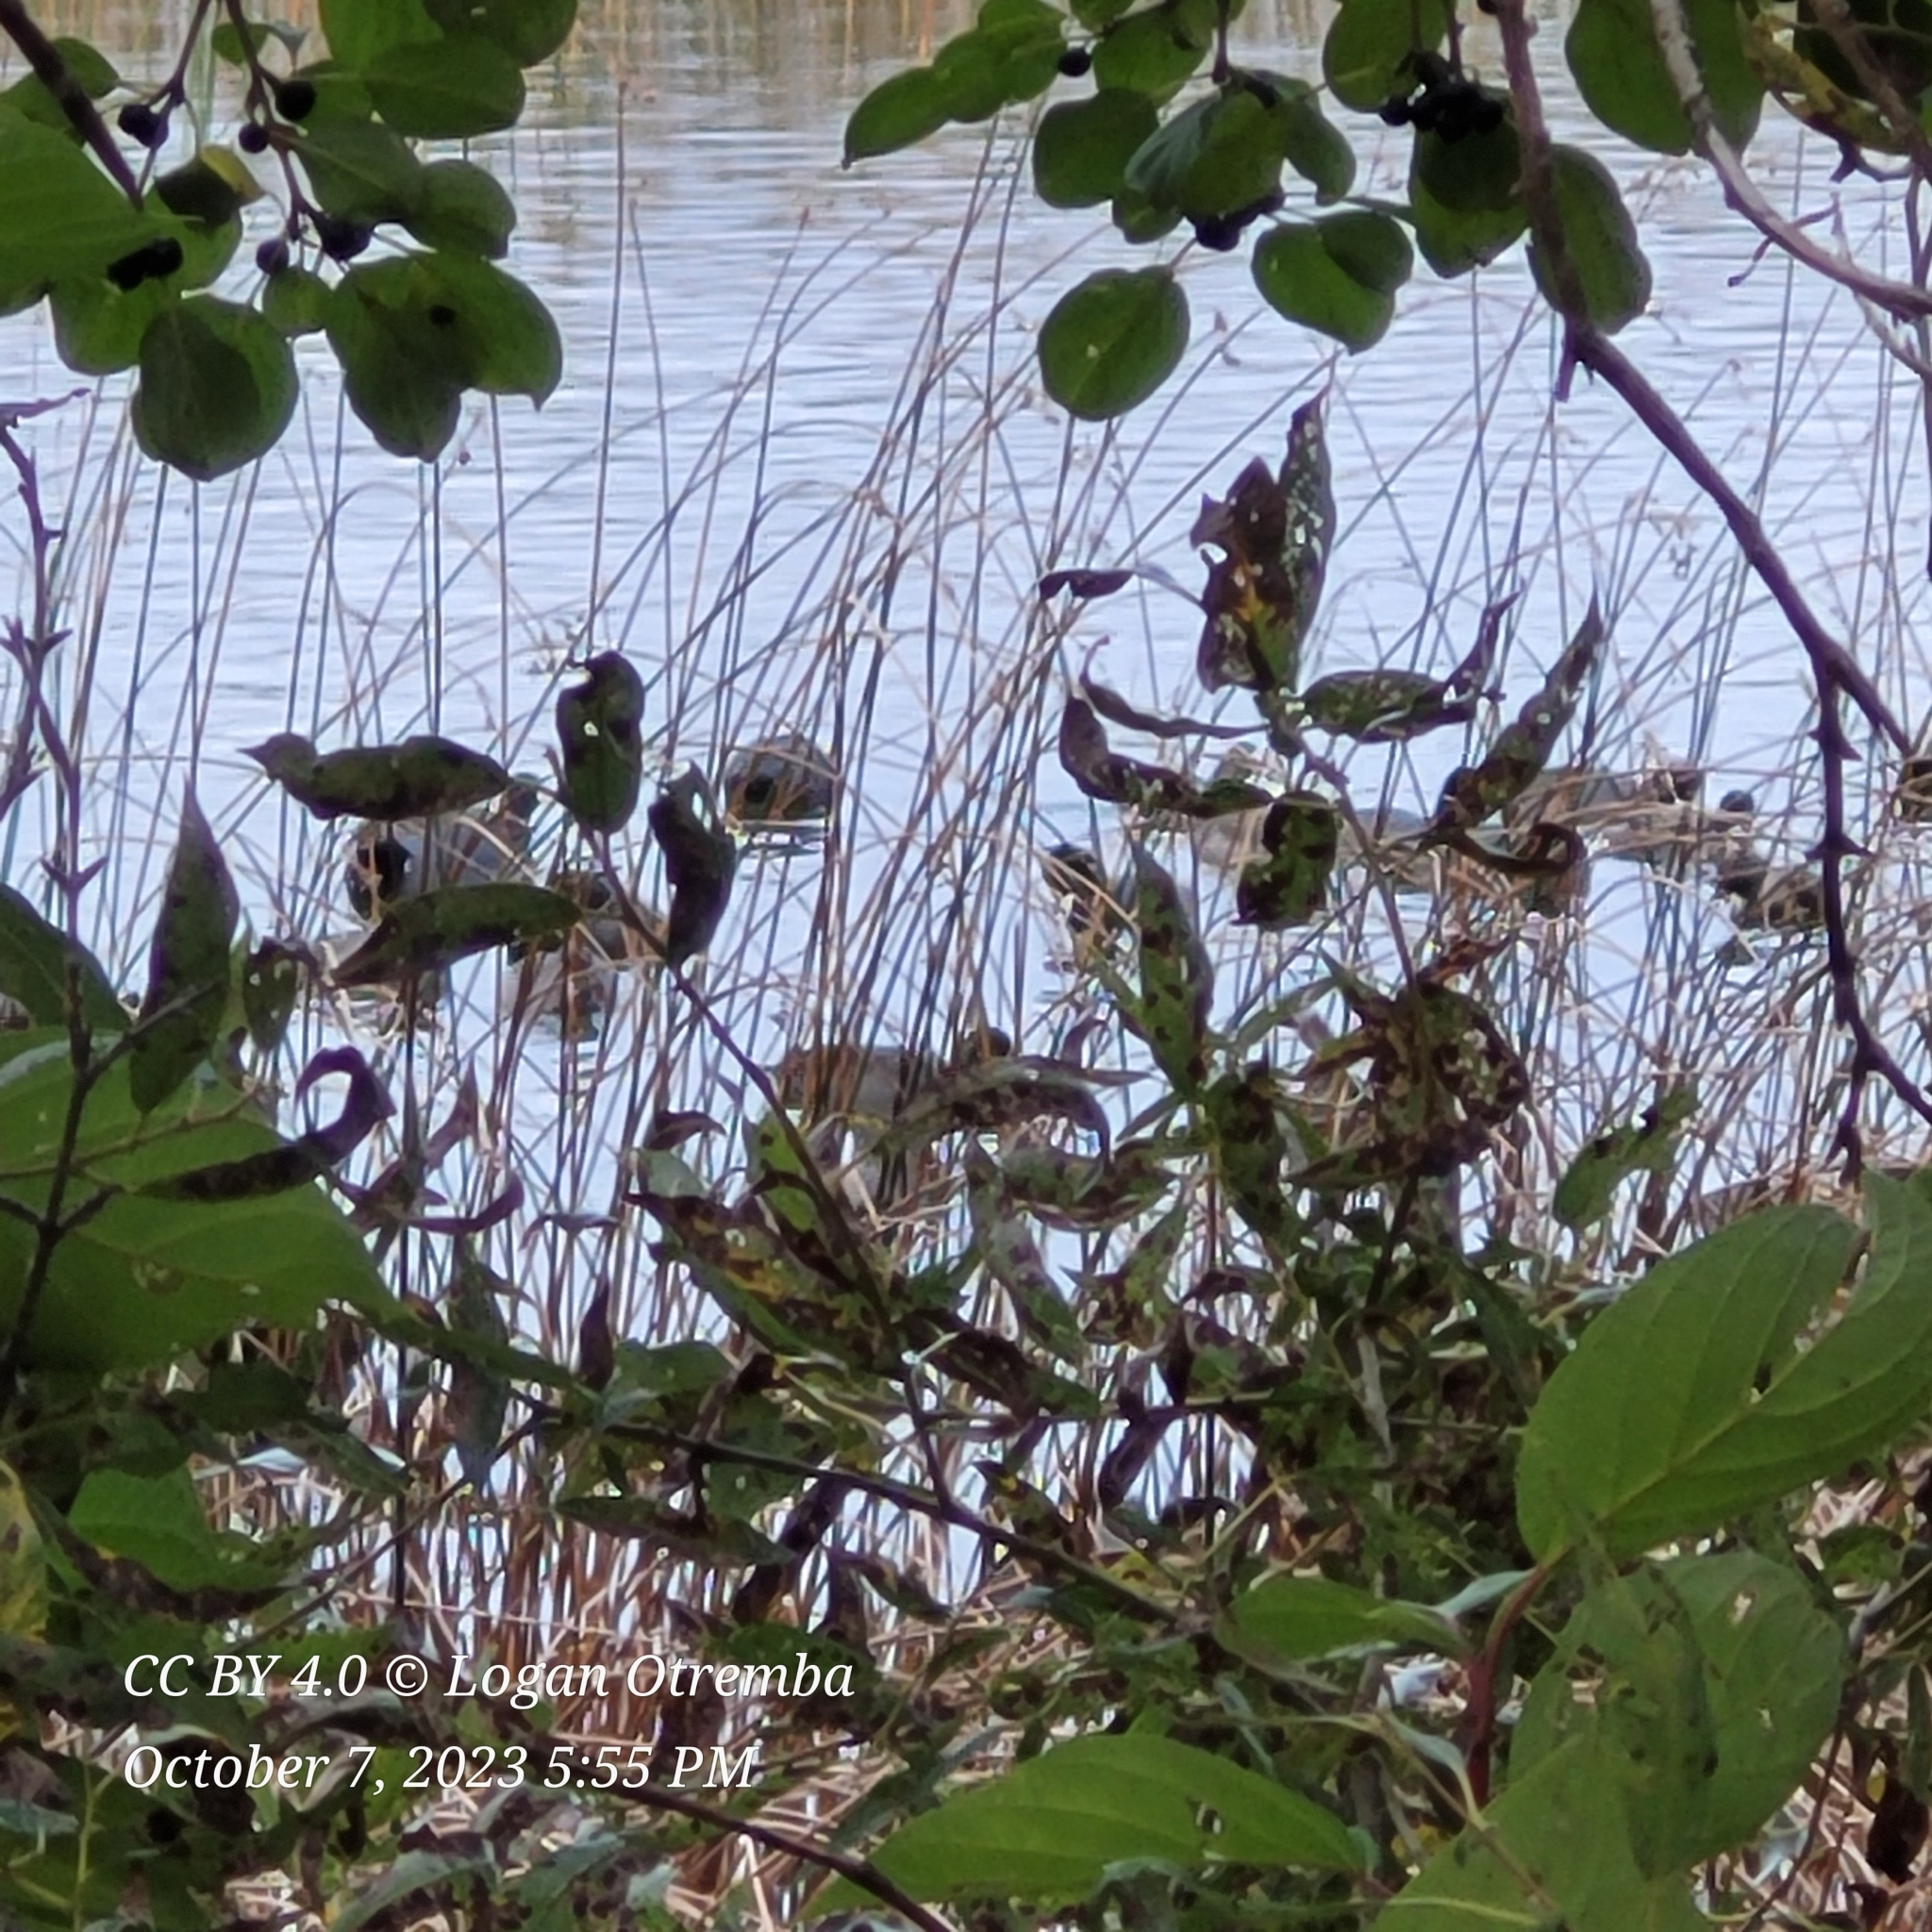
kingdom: Animalia
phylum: Chordata
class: Aves
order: Gruiformes
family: Rallidae
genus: Fulica
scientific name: Fulica americana
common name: American coot
